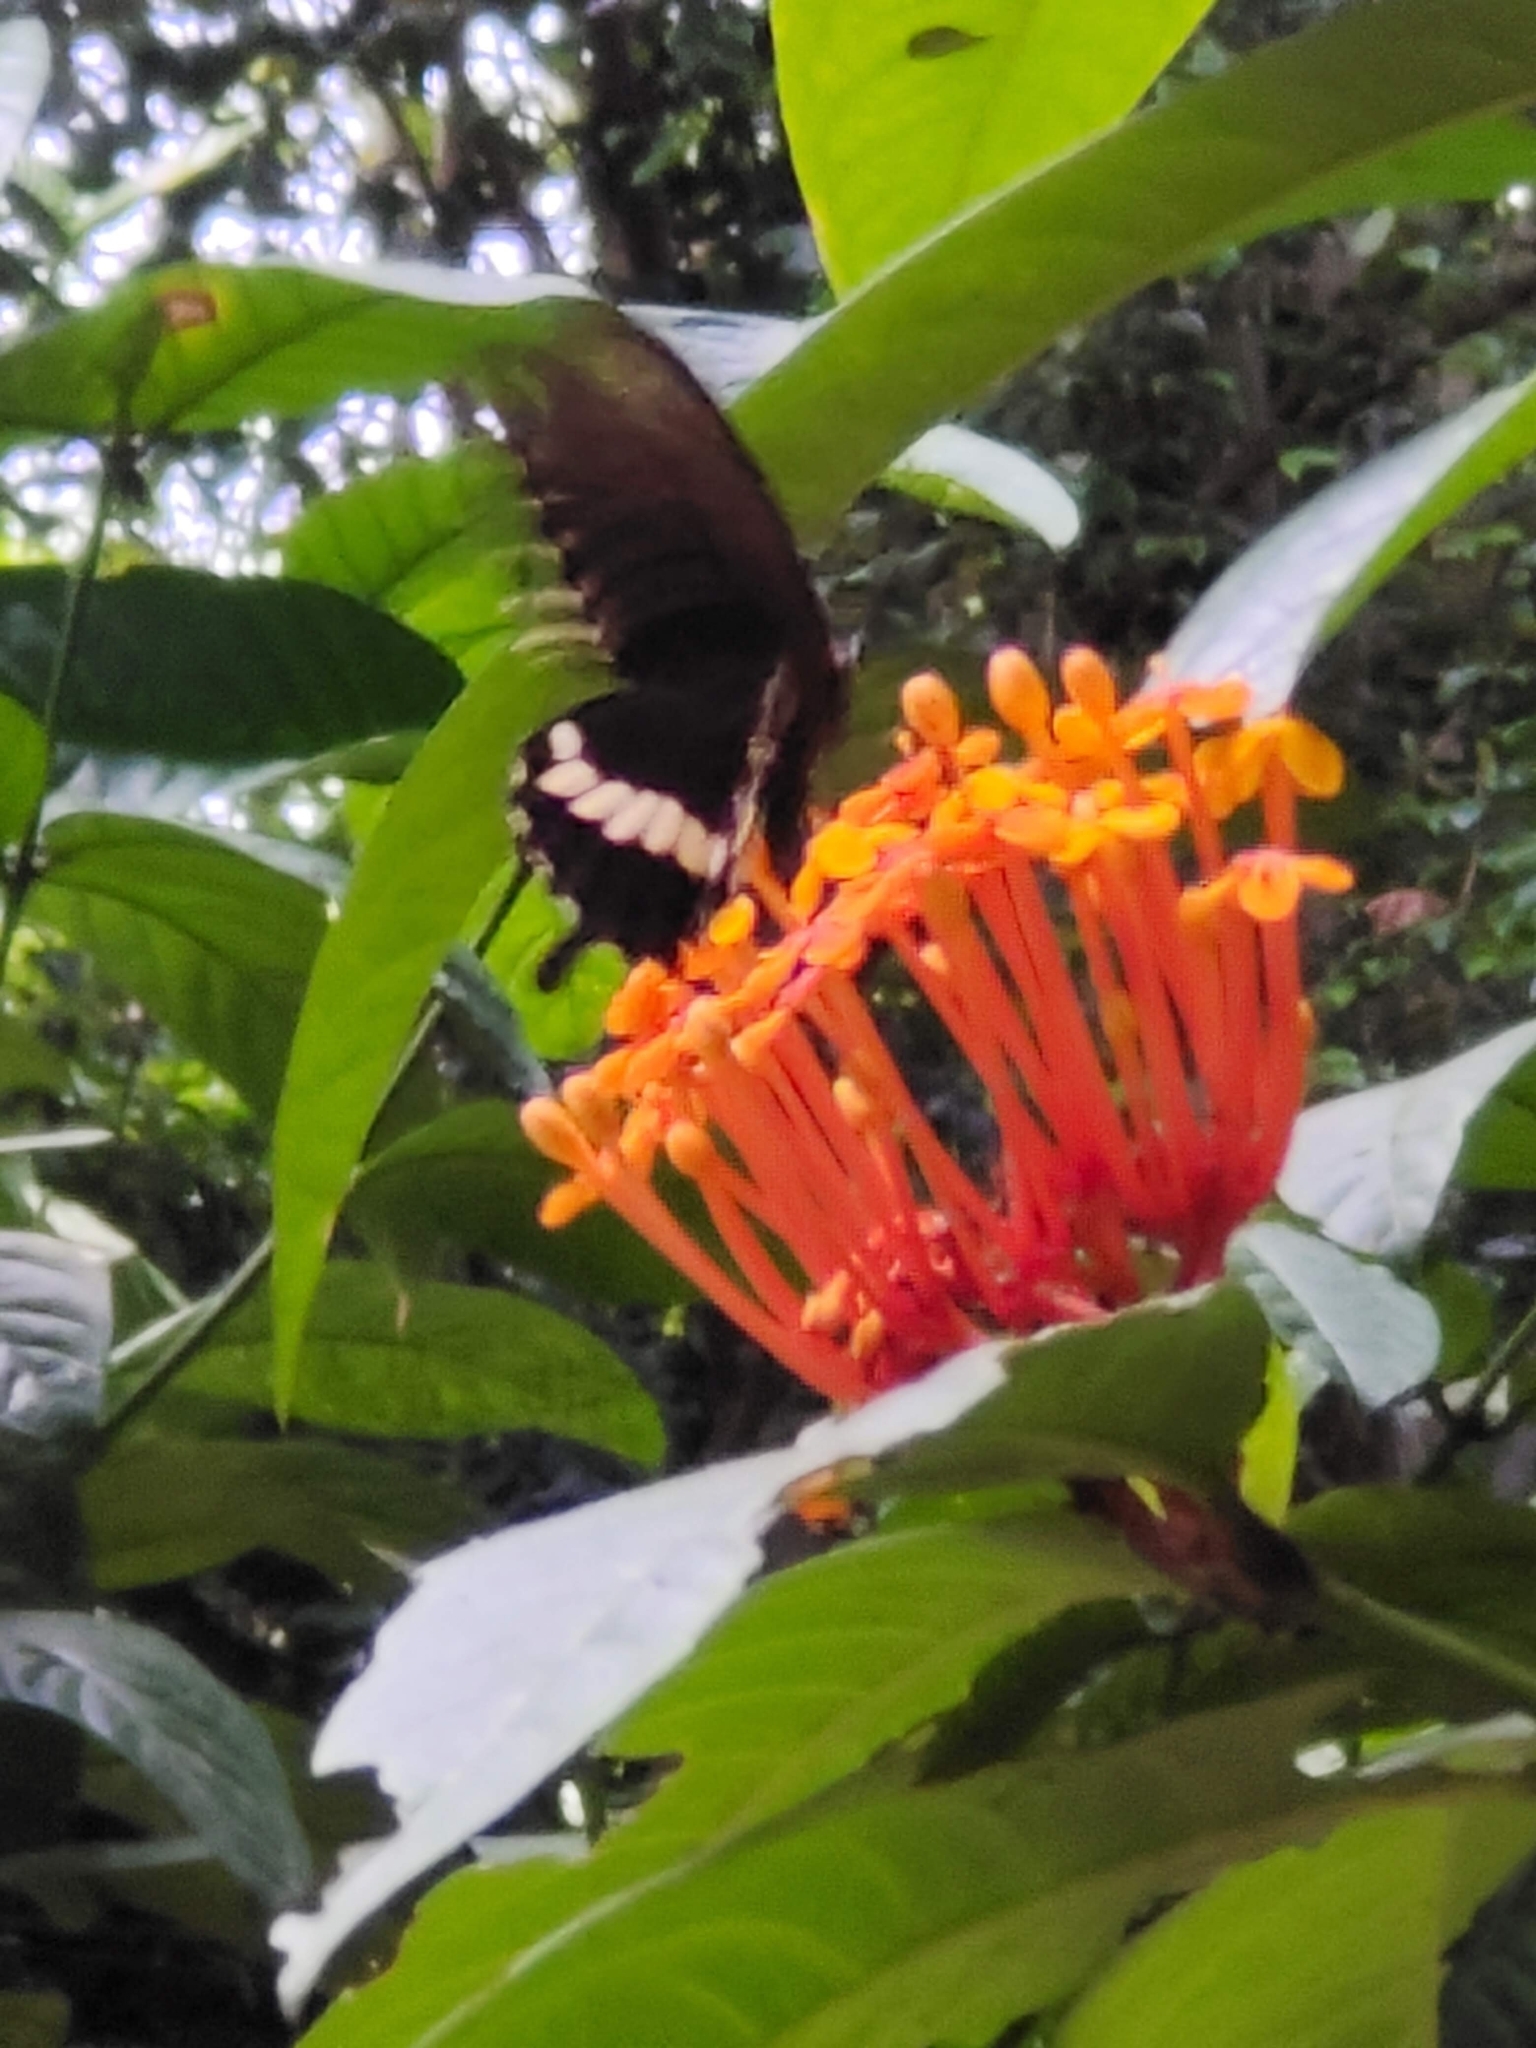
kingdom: Animalia
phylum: Arthropoda
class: Insecta
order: Lepidoptera
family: Papilionidae
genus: Papilio
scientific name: Papilio polytes
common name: Common mormon
